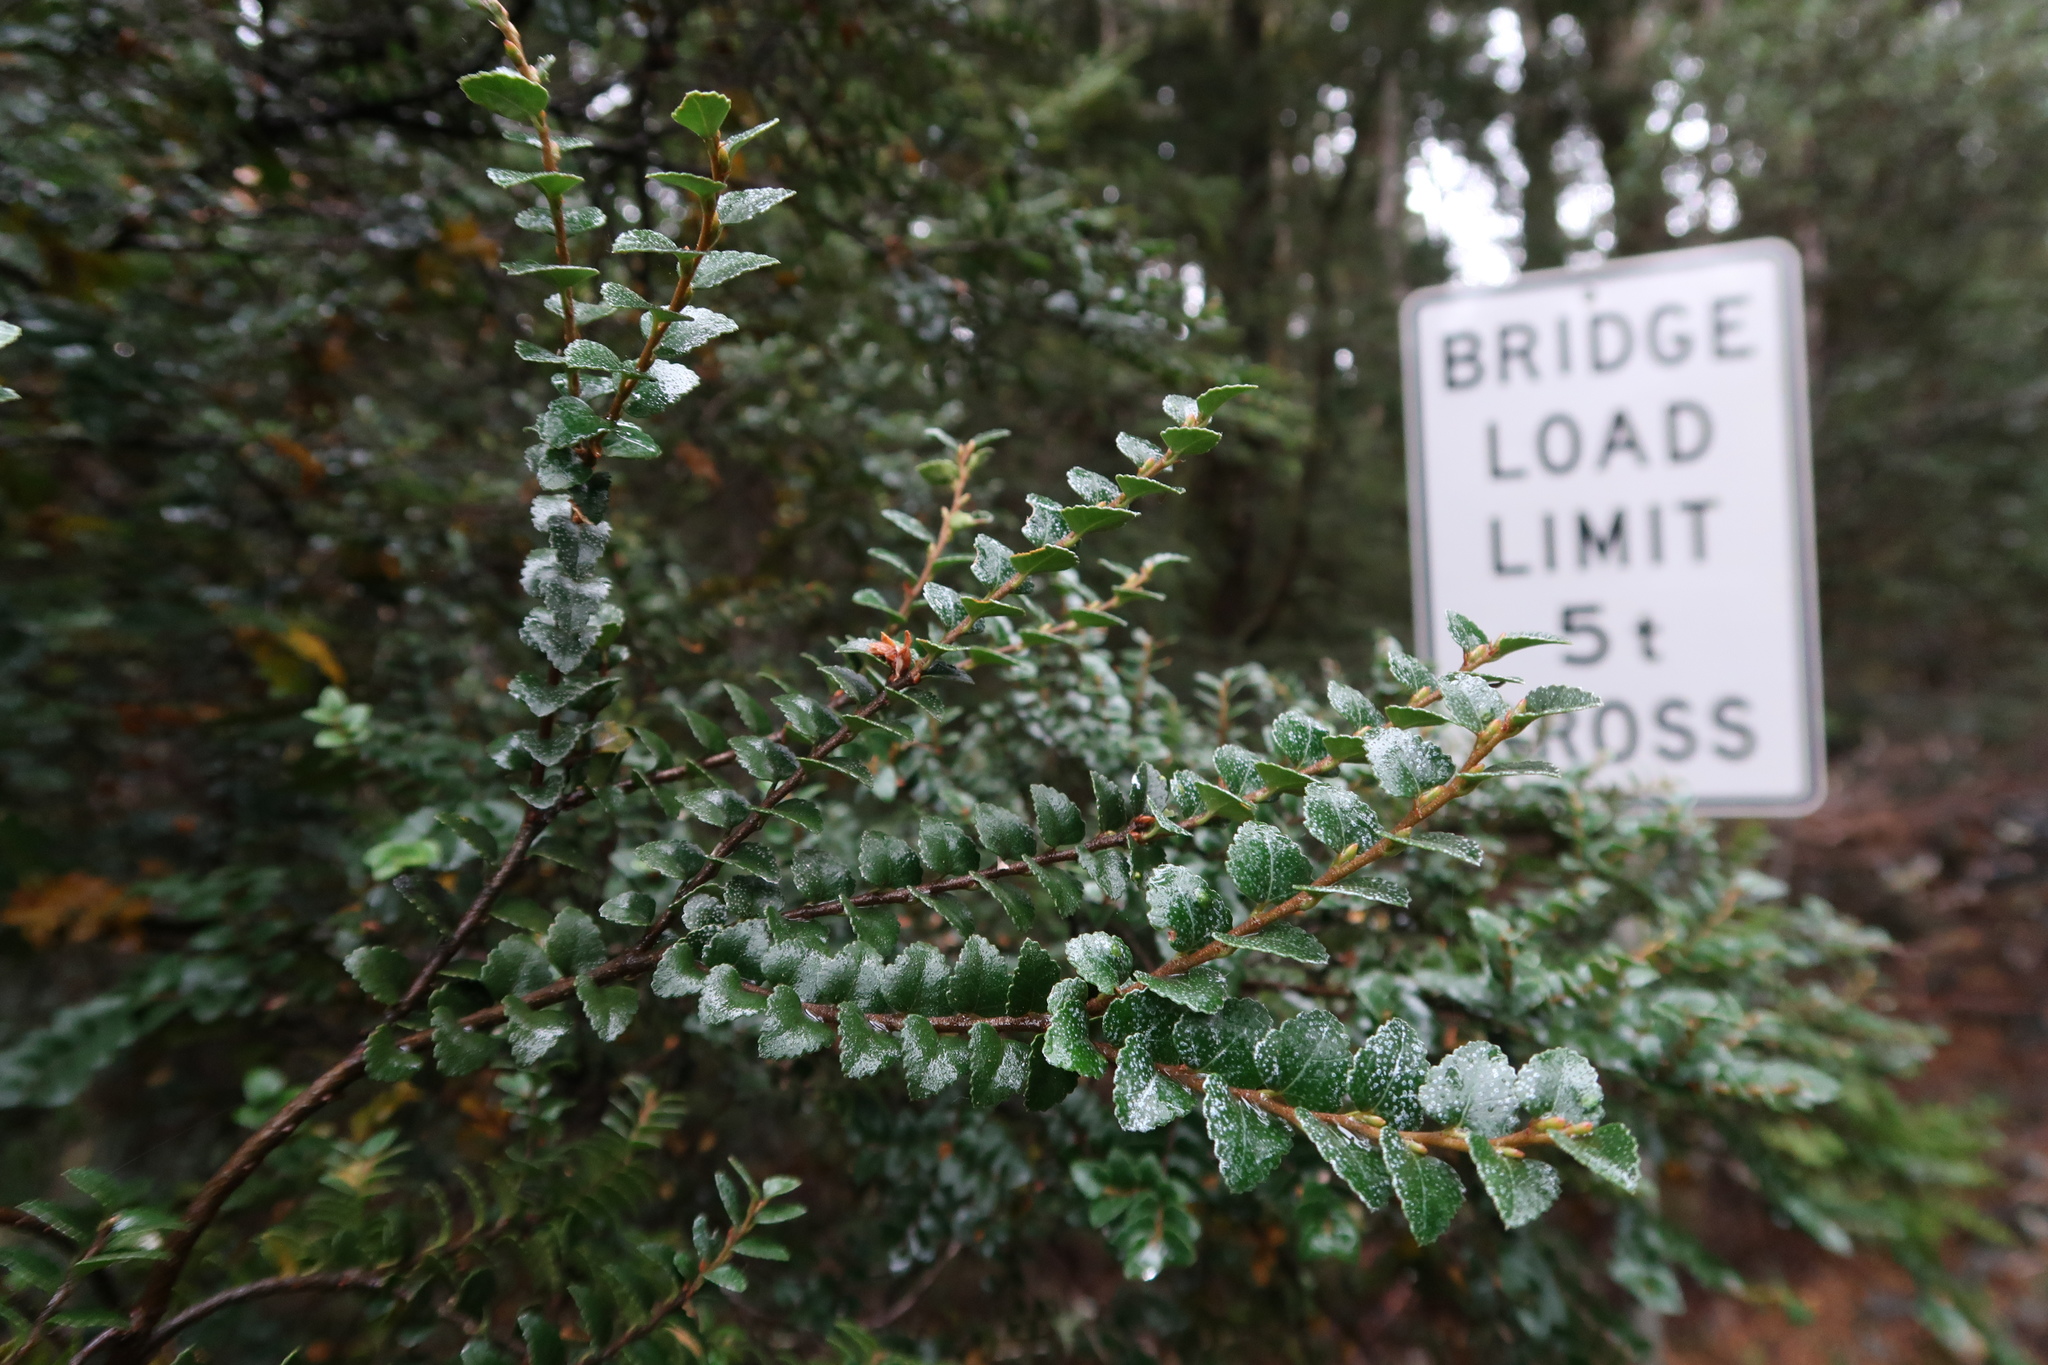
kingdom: Plantae
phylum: Tracheophyta
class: Magnoliopsida
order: Fagales
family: Nothofagaceae
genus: Nothofagus
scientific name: Nothofagus cunninghamii
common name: Myrtle beech
